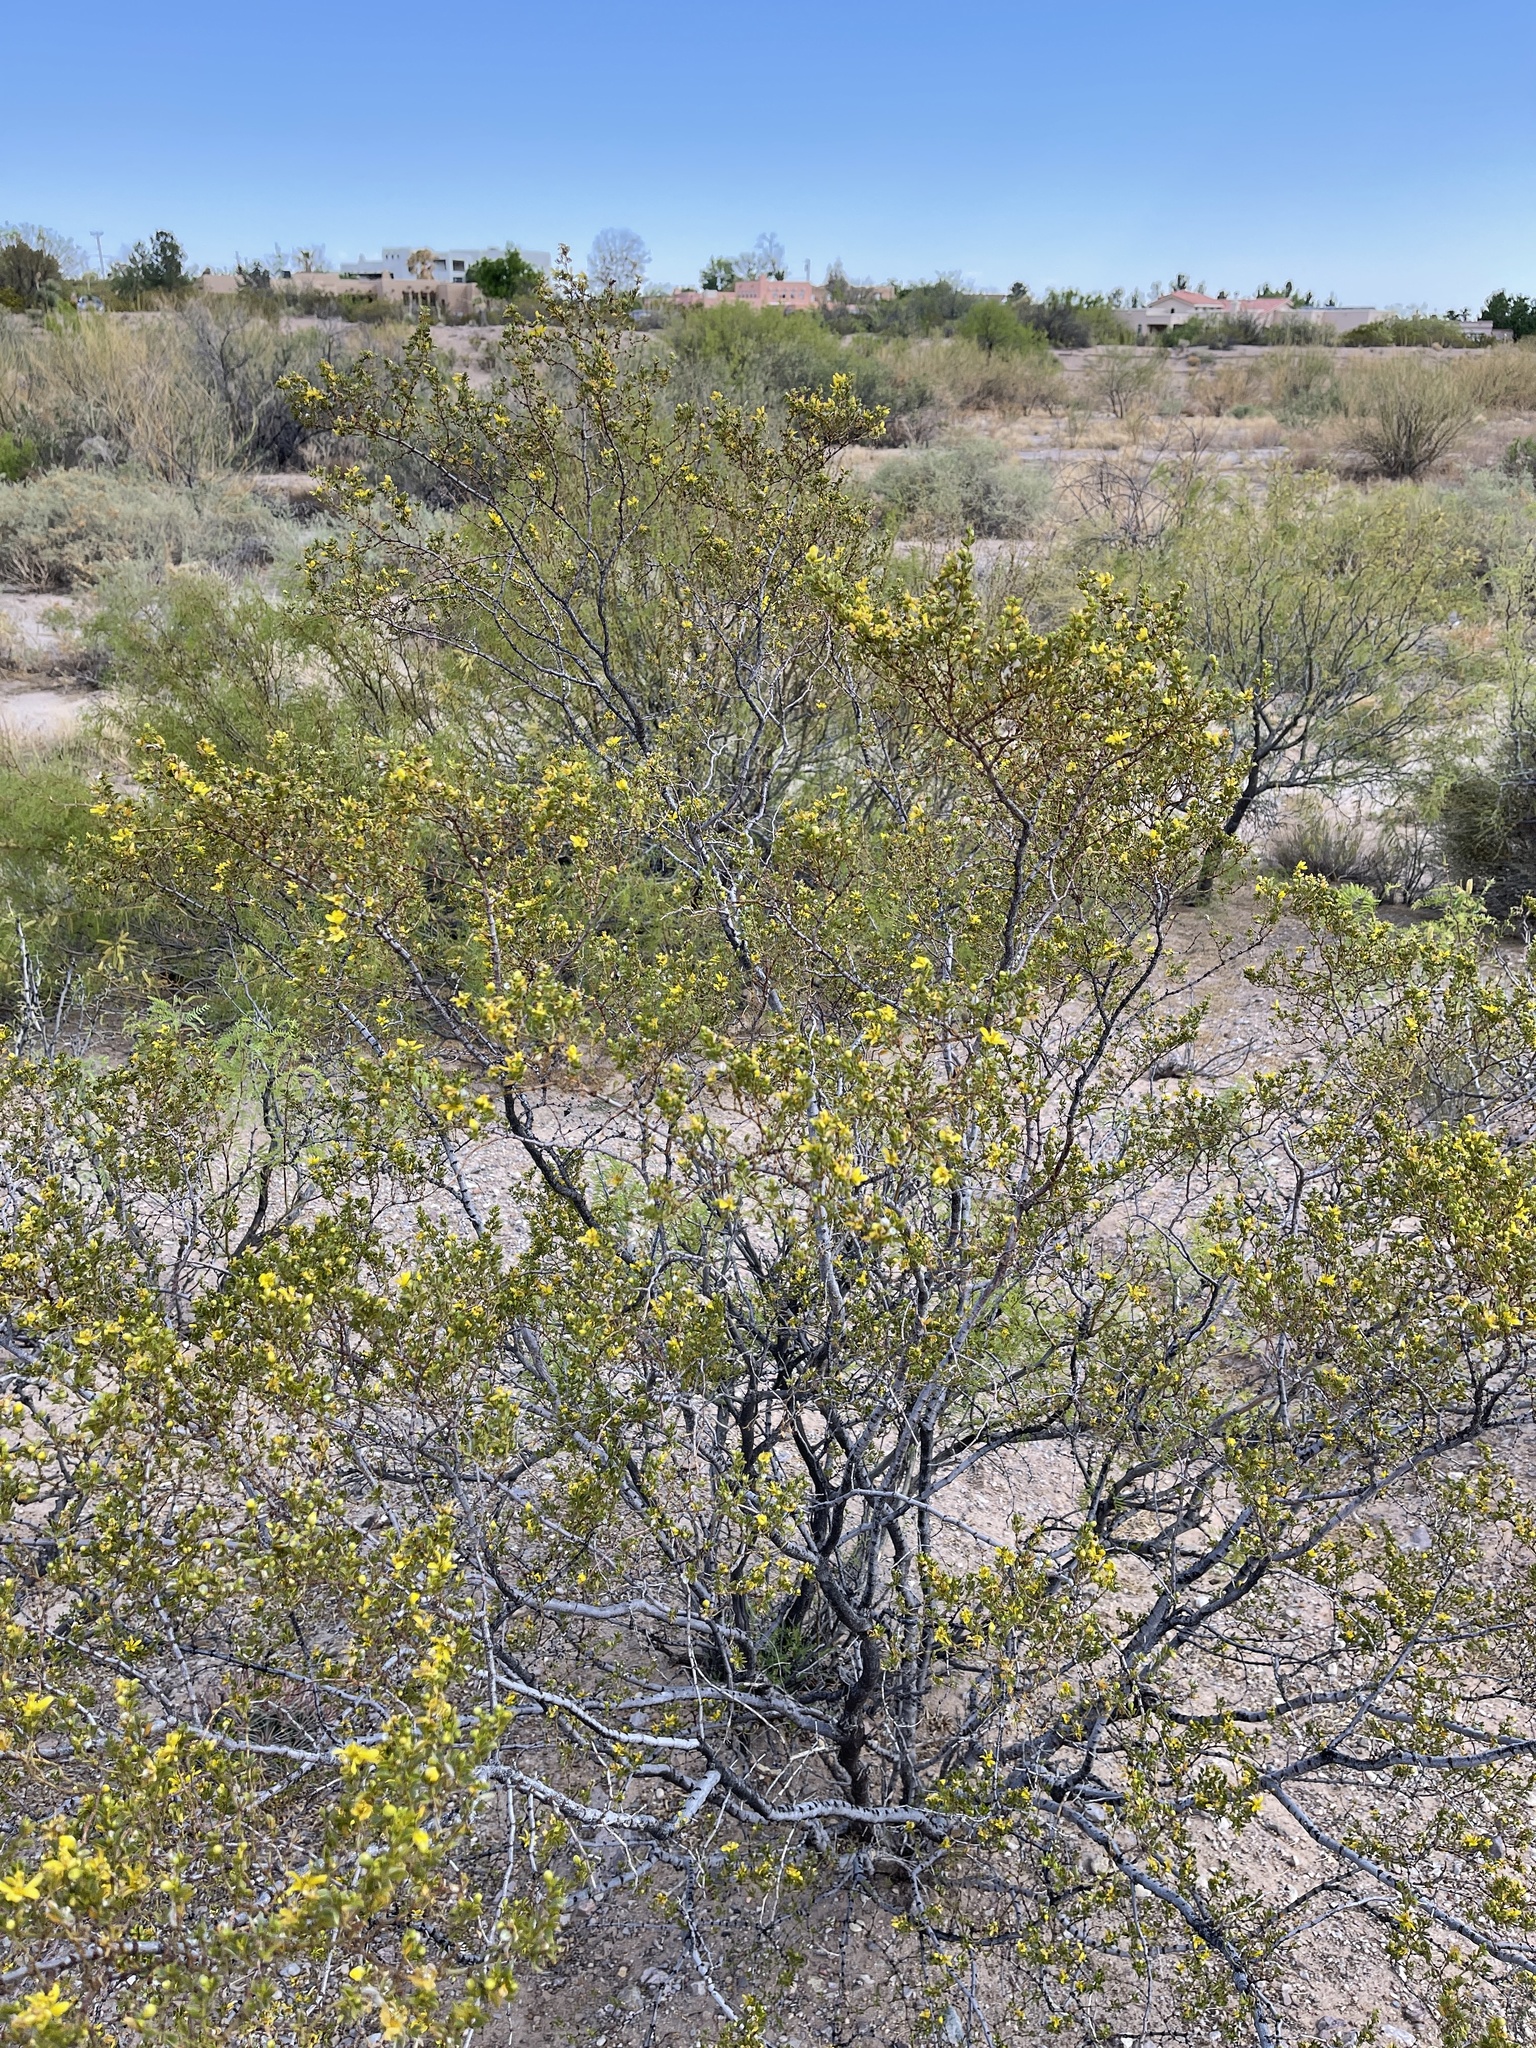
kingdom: Plantae
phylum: Tracheophyta
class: Magnoliopsida
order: Zygophyllales
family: Zygophyllaceae
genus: Larrea
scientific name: Larrea tridentata
